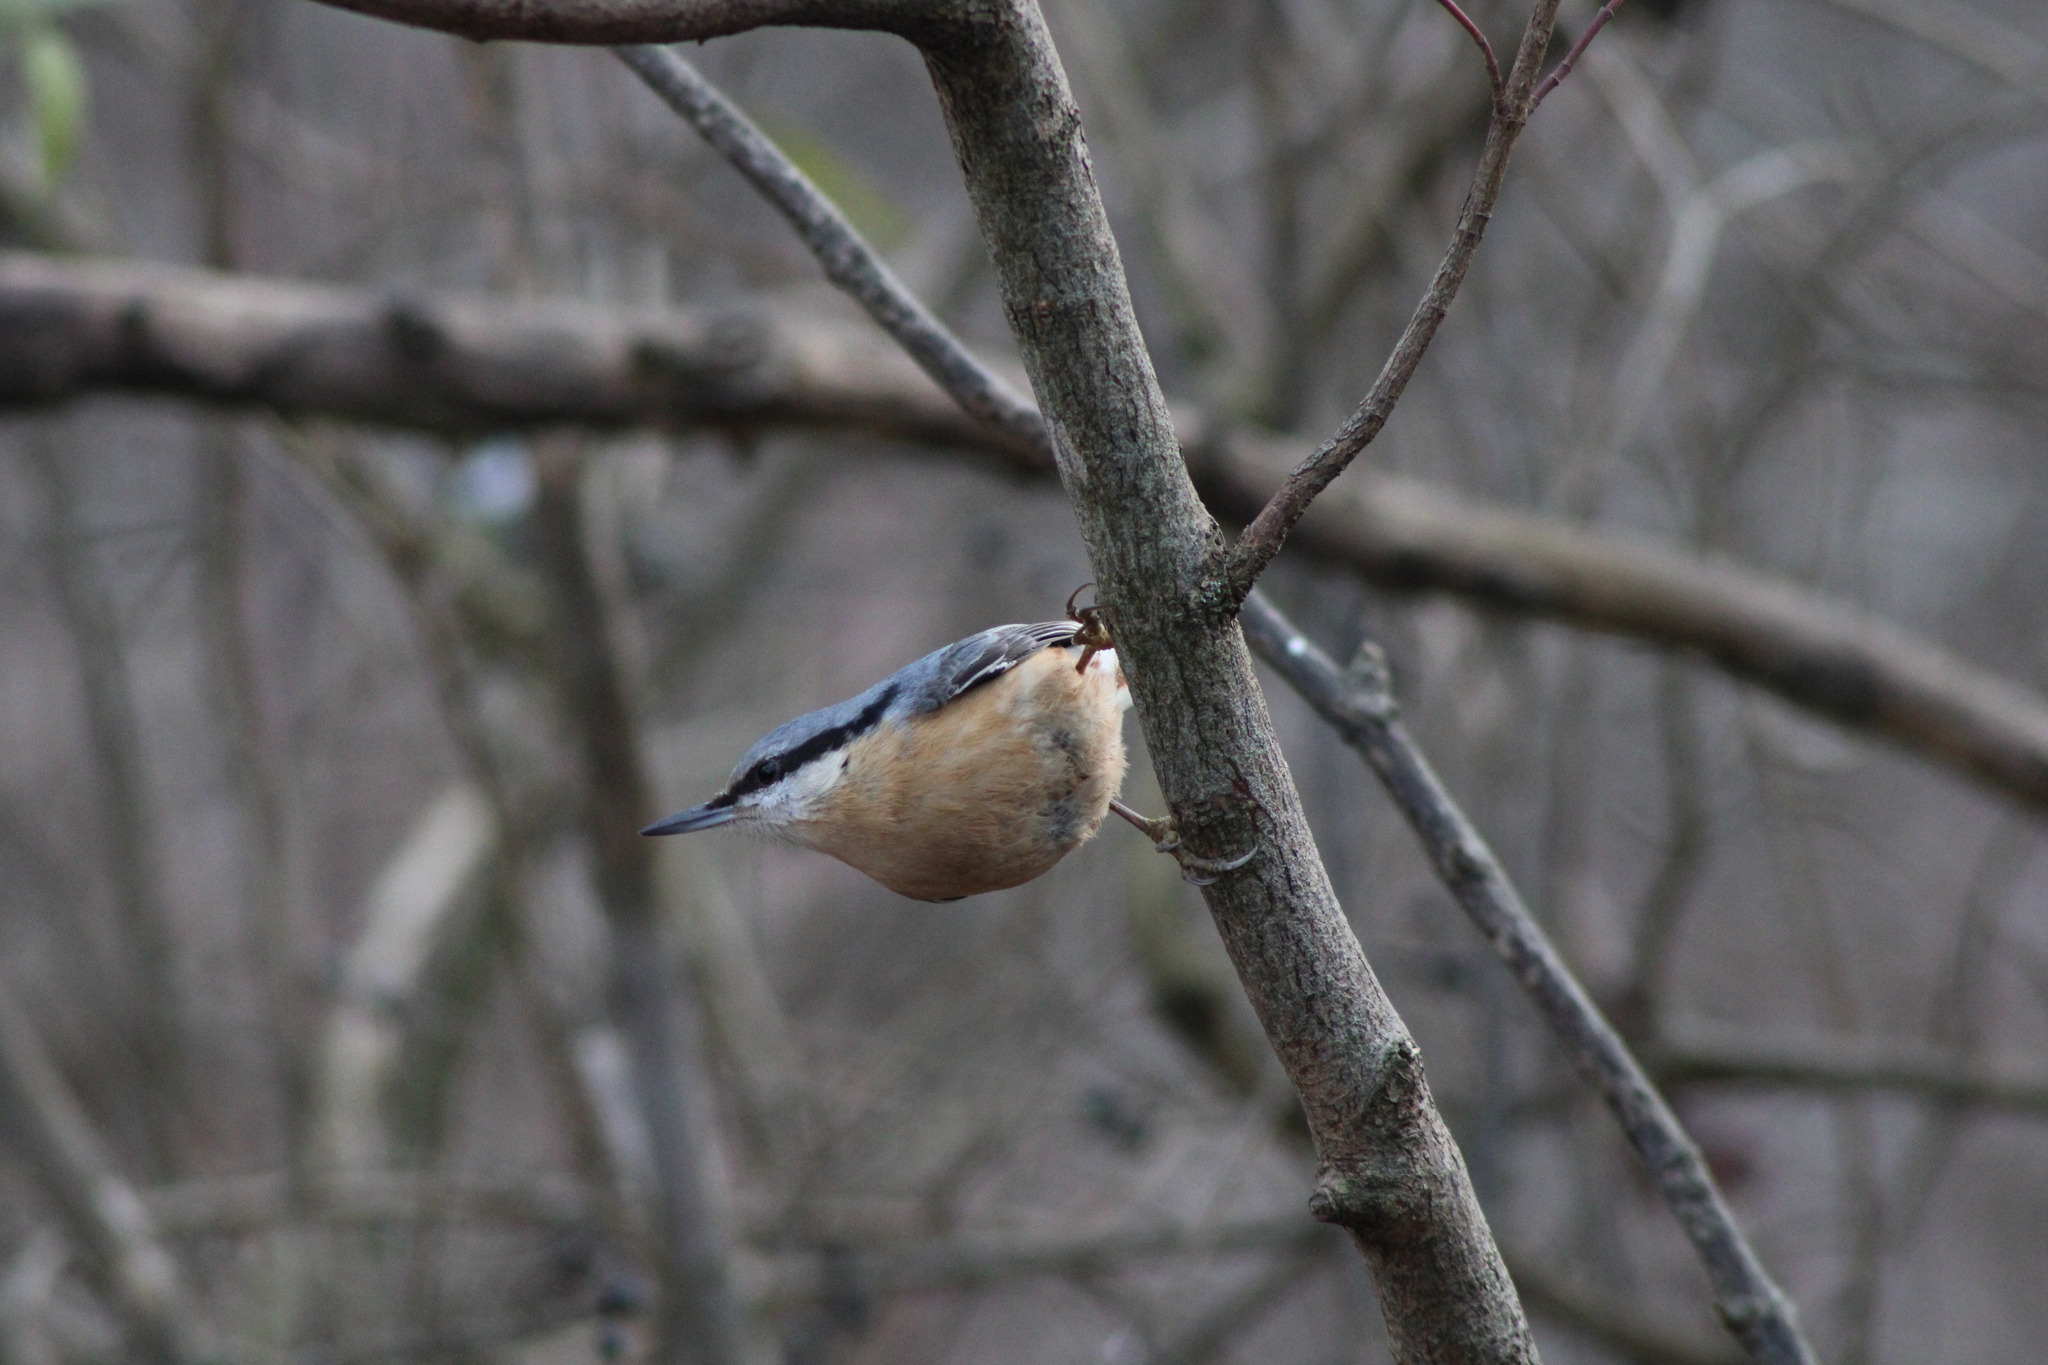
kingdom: Animalia
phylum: Chordata
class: Aves
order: Passeriformes
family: Sittidae
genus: Sitta
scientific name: Sitta europaea
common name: Eurasian nuthatch
